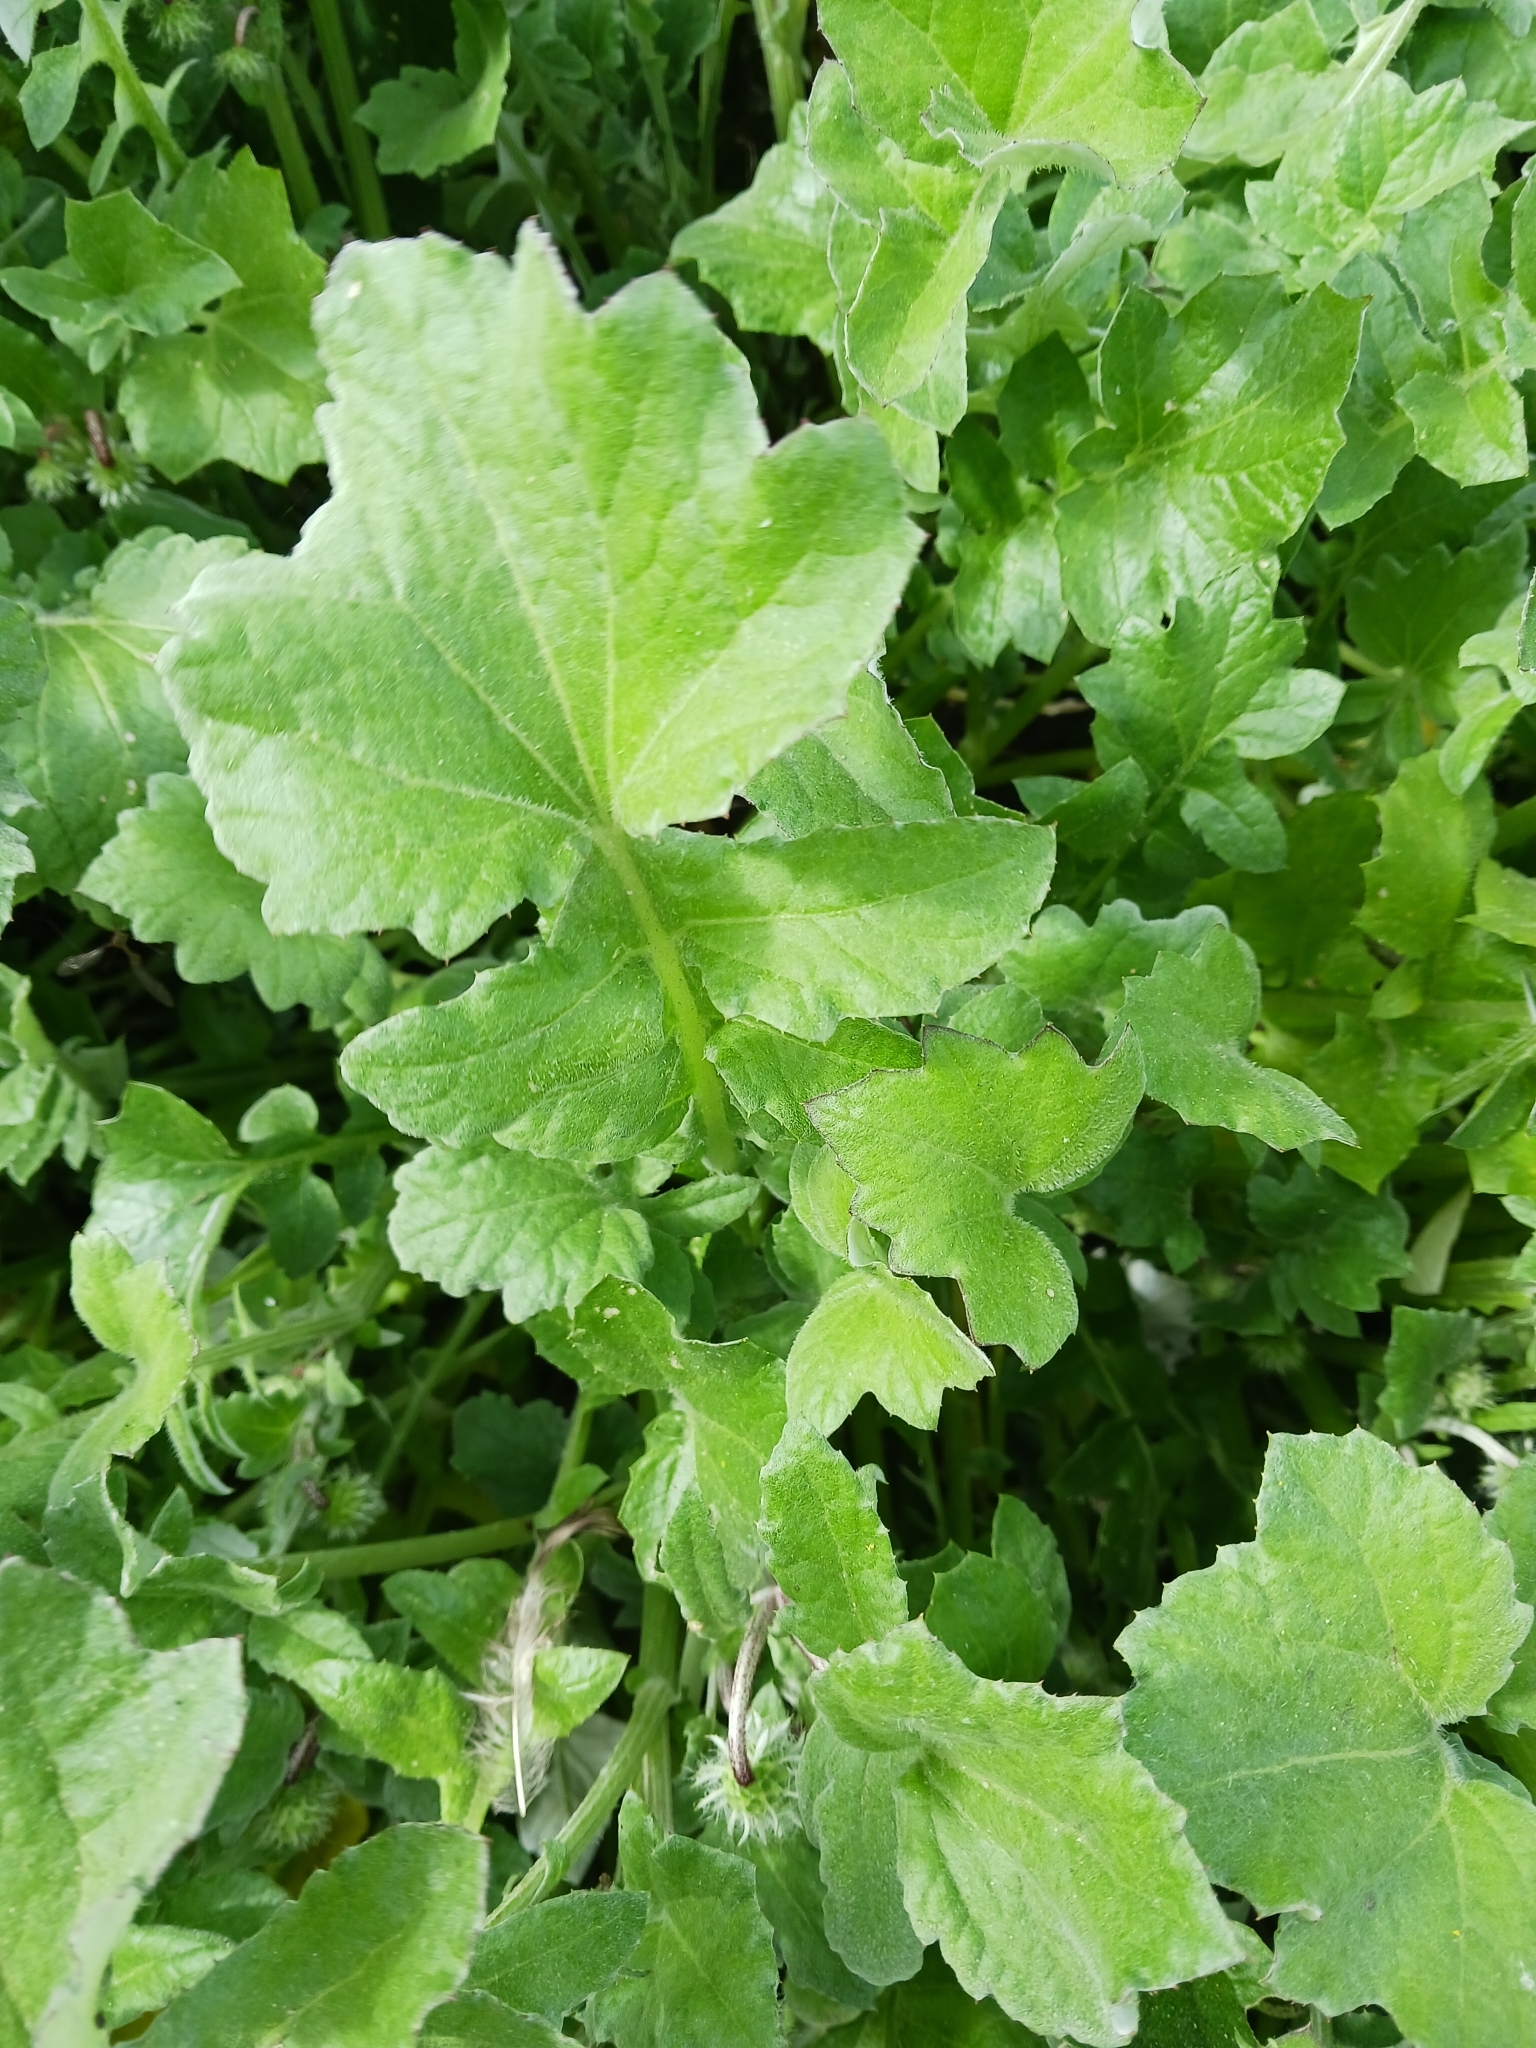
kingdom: Plantae
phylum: Tracheophyta
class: Magnoliopsida
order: Asterales
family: Asteraceae
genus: Arctotheca
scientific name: Arctotheca calendula
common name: Capeweed
